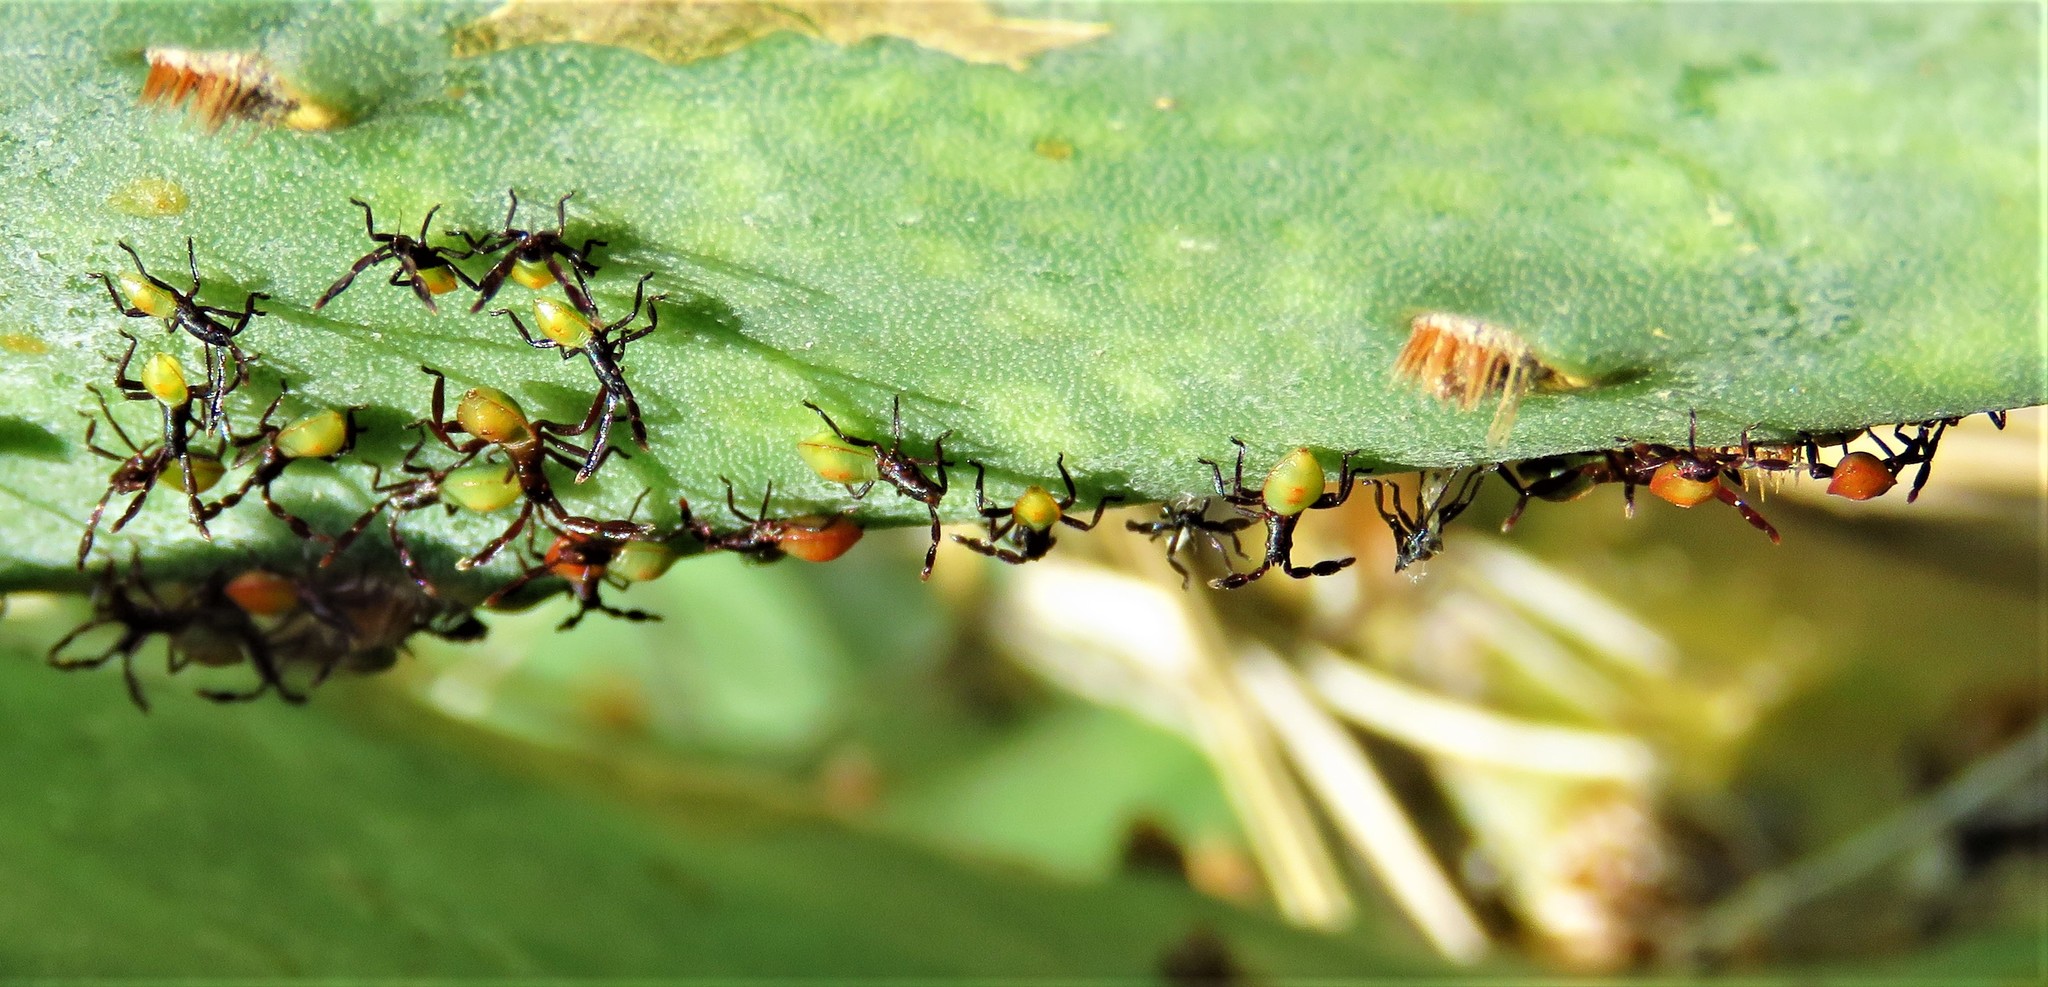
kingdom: Animalia
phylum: Arthropoda
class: Insecta
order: Hemiptera
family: Coreidae
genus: Chelinidea
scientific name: Chelinidea vittiger
